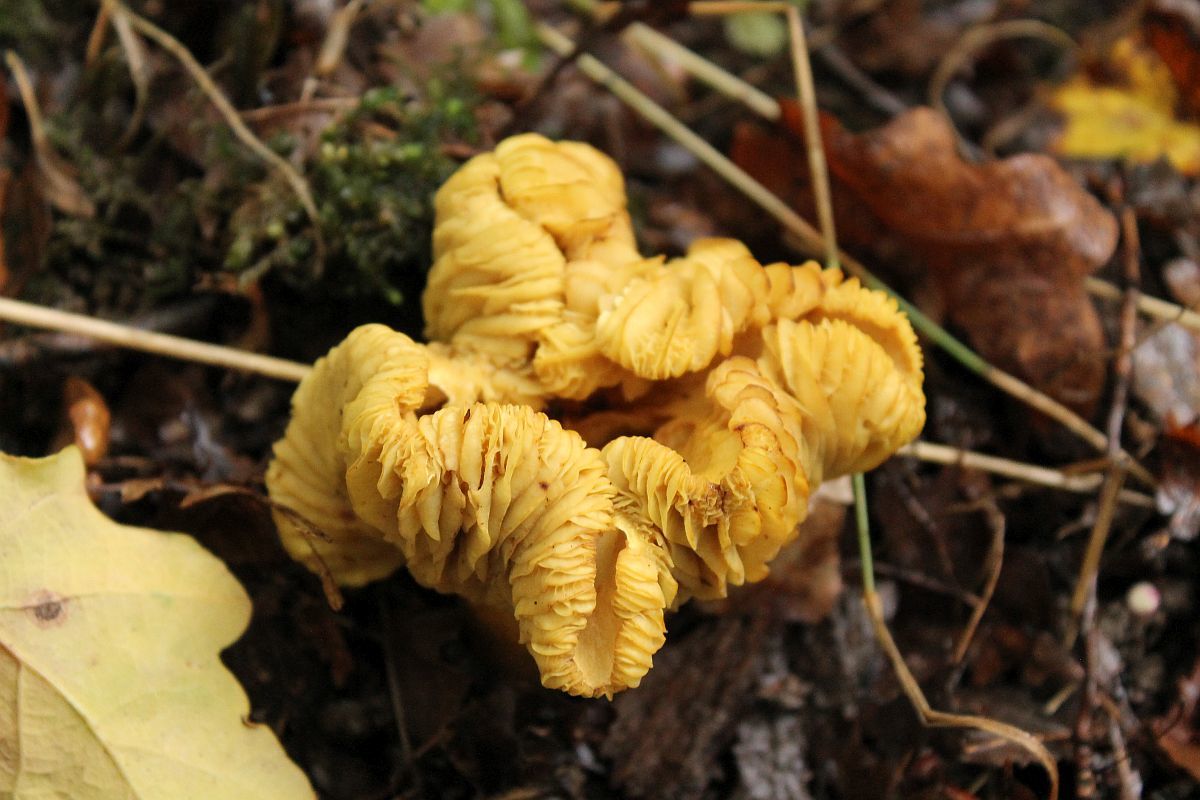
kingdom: Fungi
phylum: Basidiomycota
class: Agaricomycetes
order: Agaricales
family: Tricholomataceae
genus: Tricholoma
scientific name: Tricholoma sulphureum
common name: Stinky knight
